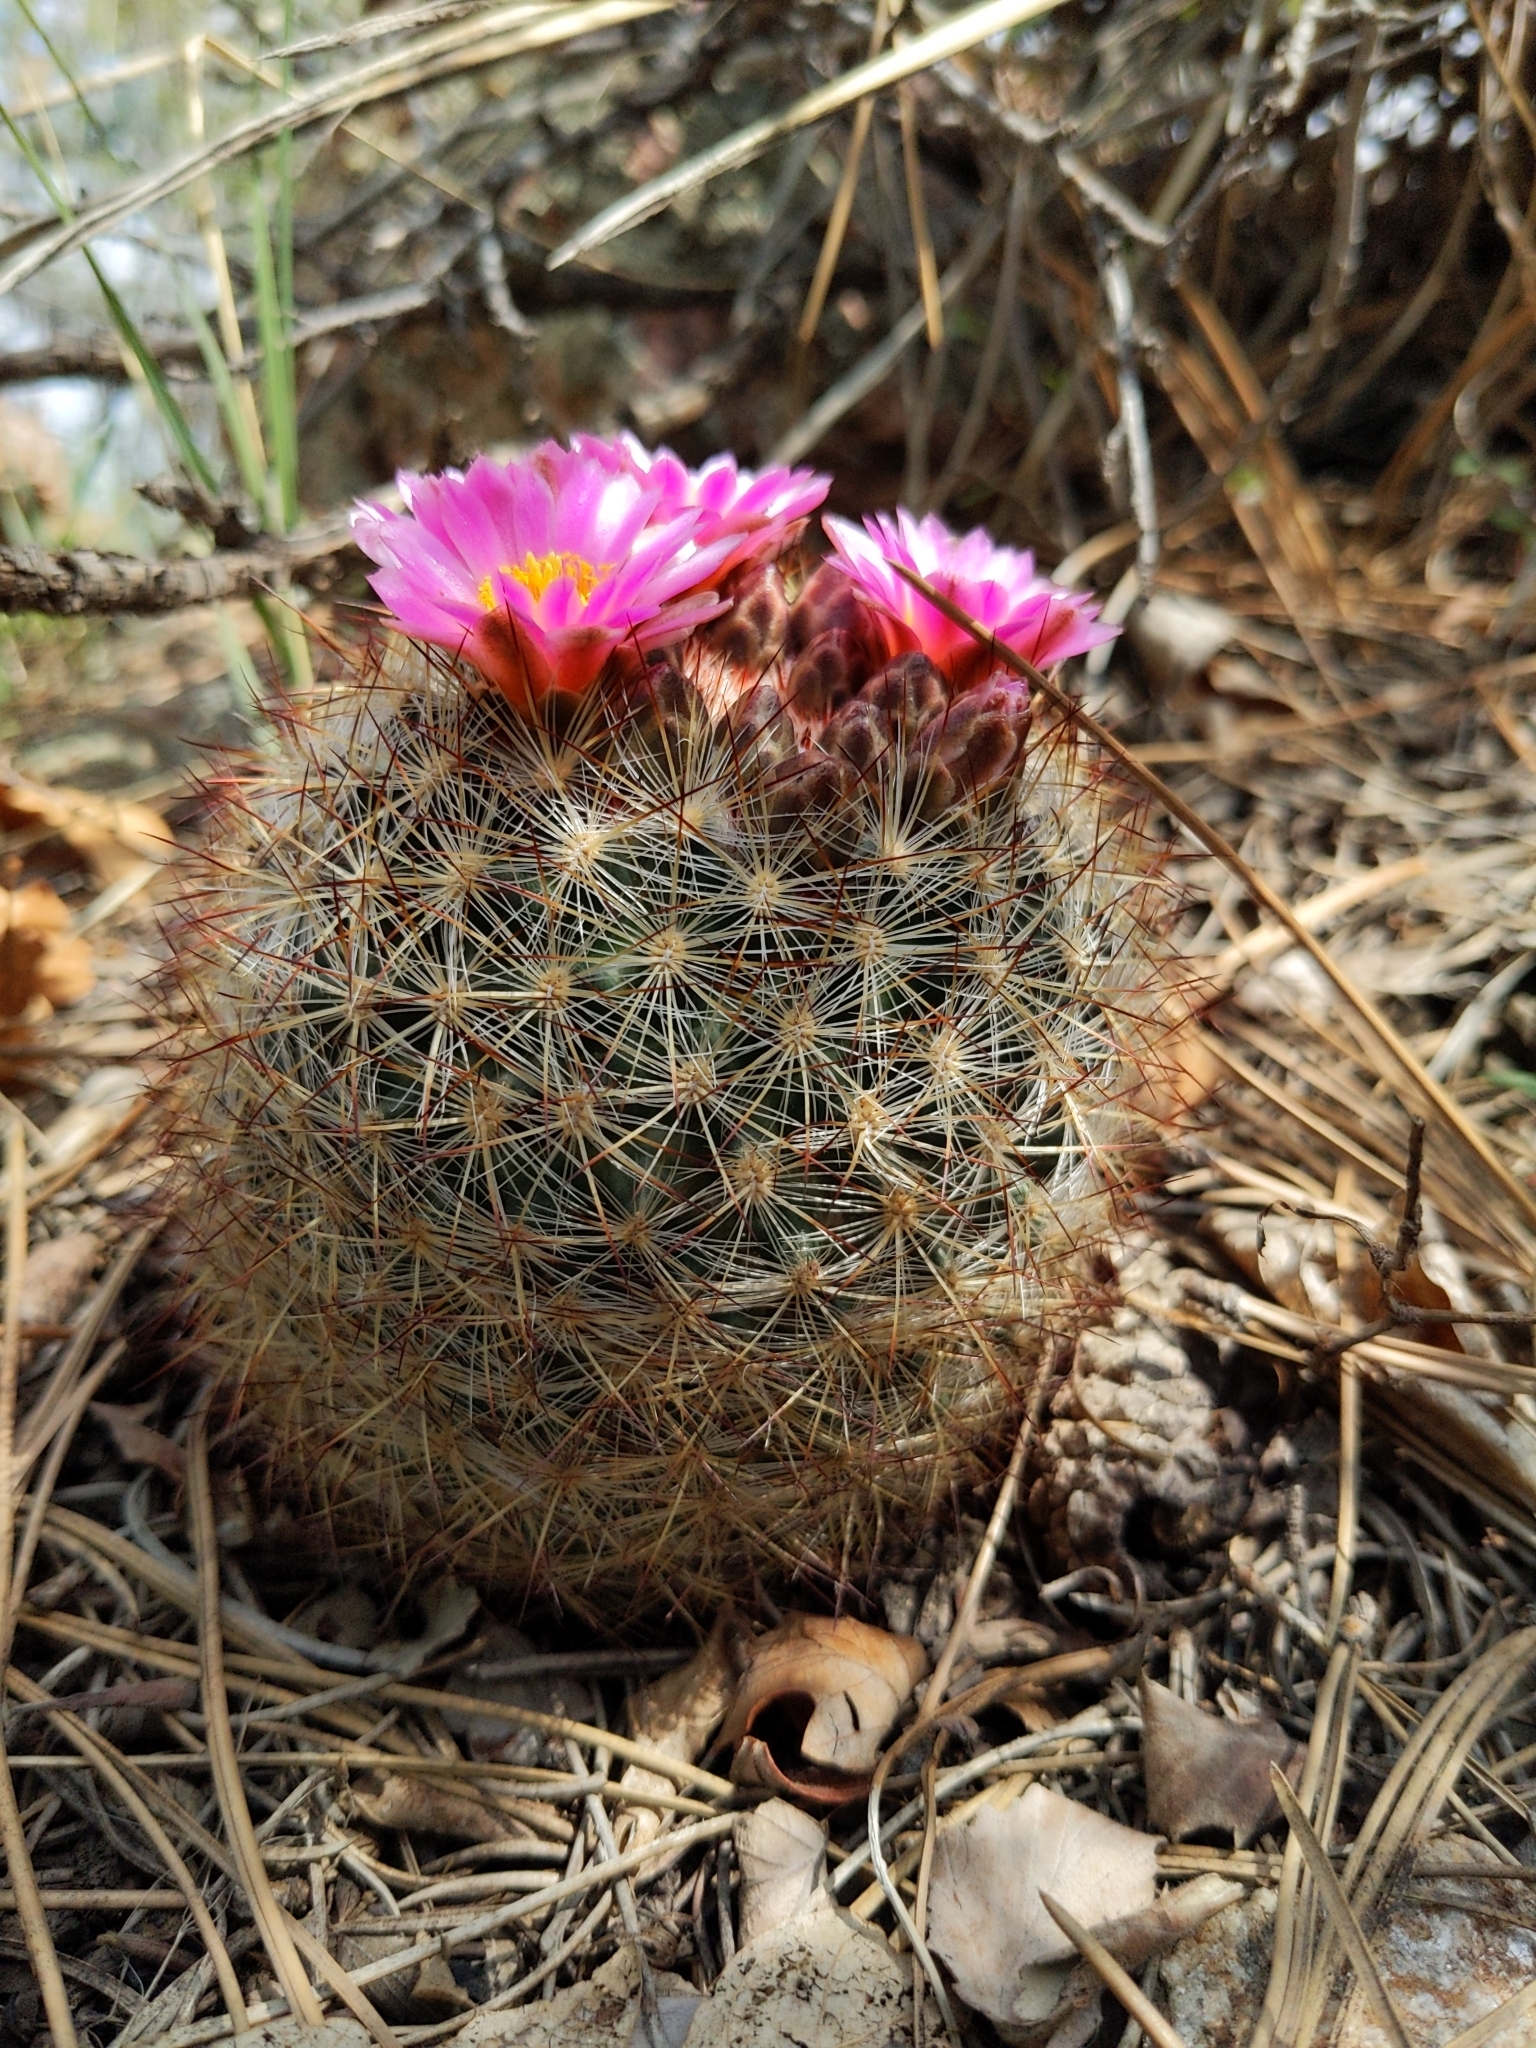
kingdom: Plantae
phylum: Tracheophyta
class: Magnoliopsida
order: Caryophyllales
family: Cactaceae
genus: Pediocactus
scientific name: Pediocactus simpsonii
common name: Simpson's hedgehog cactus
